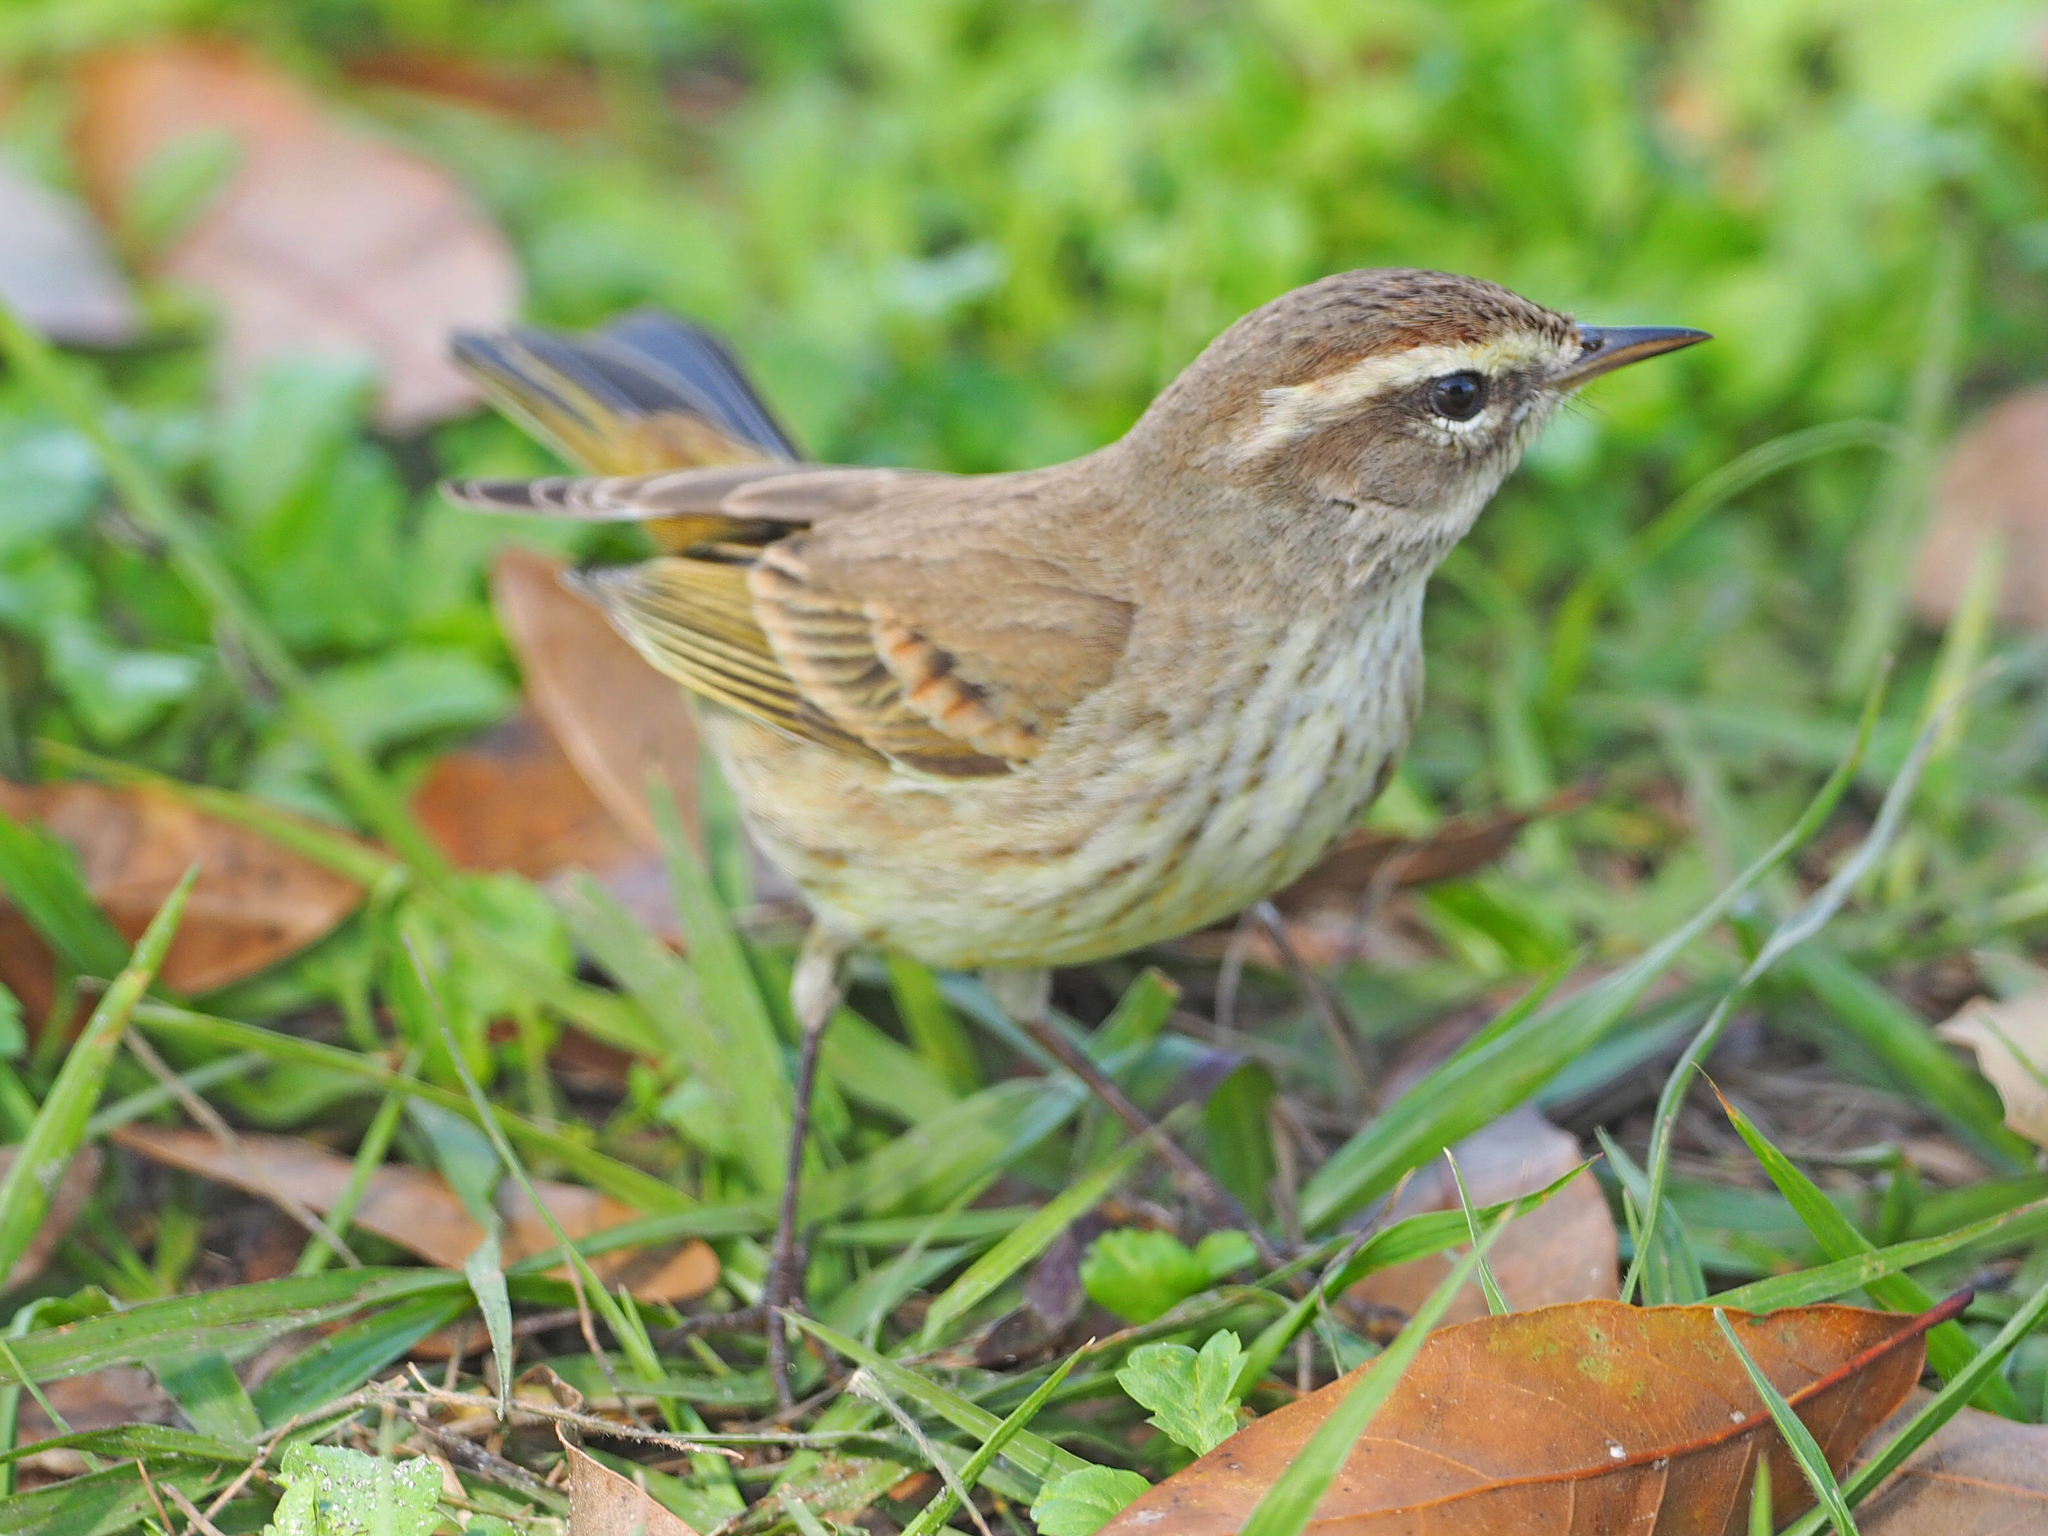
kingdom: Animalia
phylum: Chordata
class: Aves
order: Passeriformes
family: Parulidae
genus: Setophaga
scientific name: Setophaga palmarum
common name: Palm warbler
